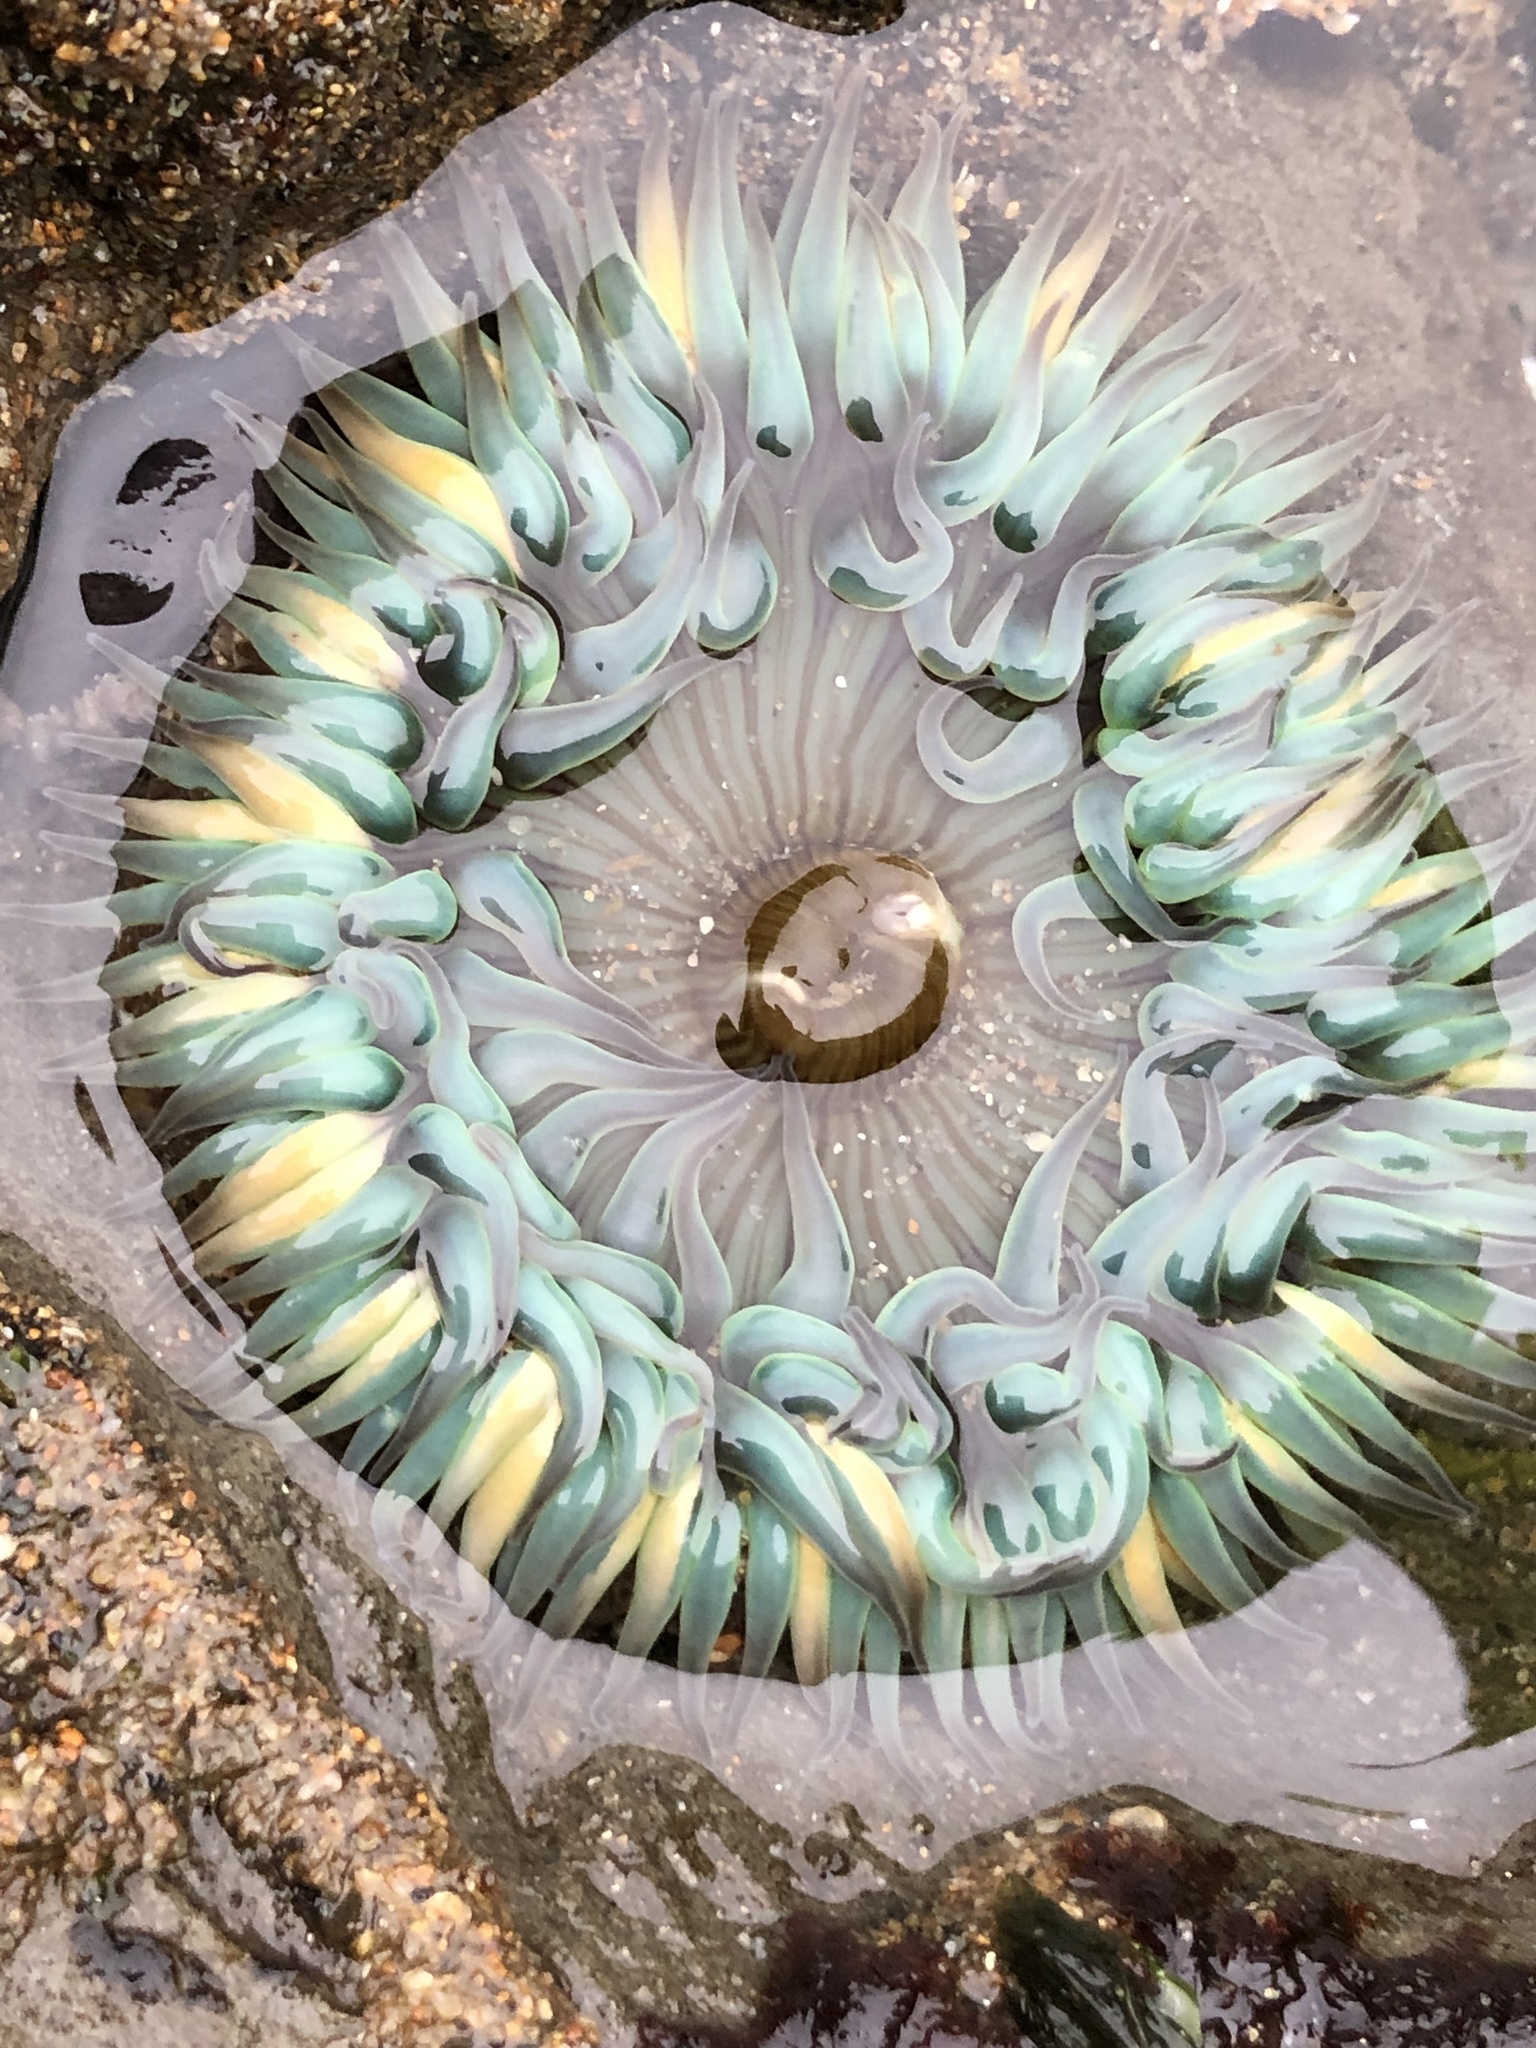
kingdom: Animalia
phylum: Cnidaria
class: Anthozoa
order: Actiniaria
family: Actiniidae
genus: Anthopleura
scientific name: Anthopleura sola
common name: Sun anemone
